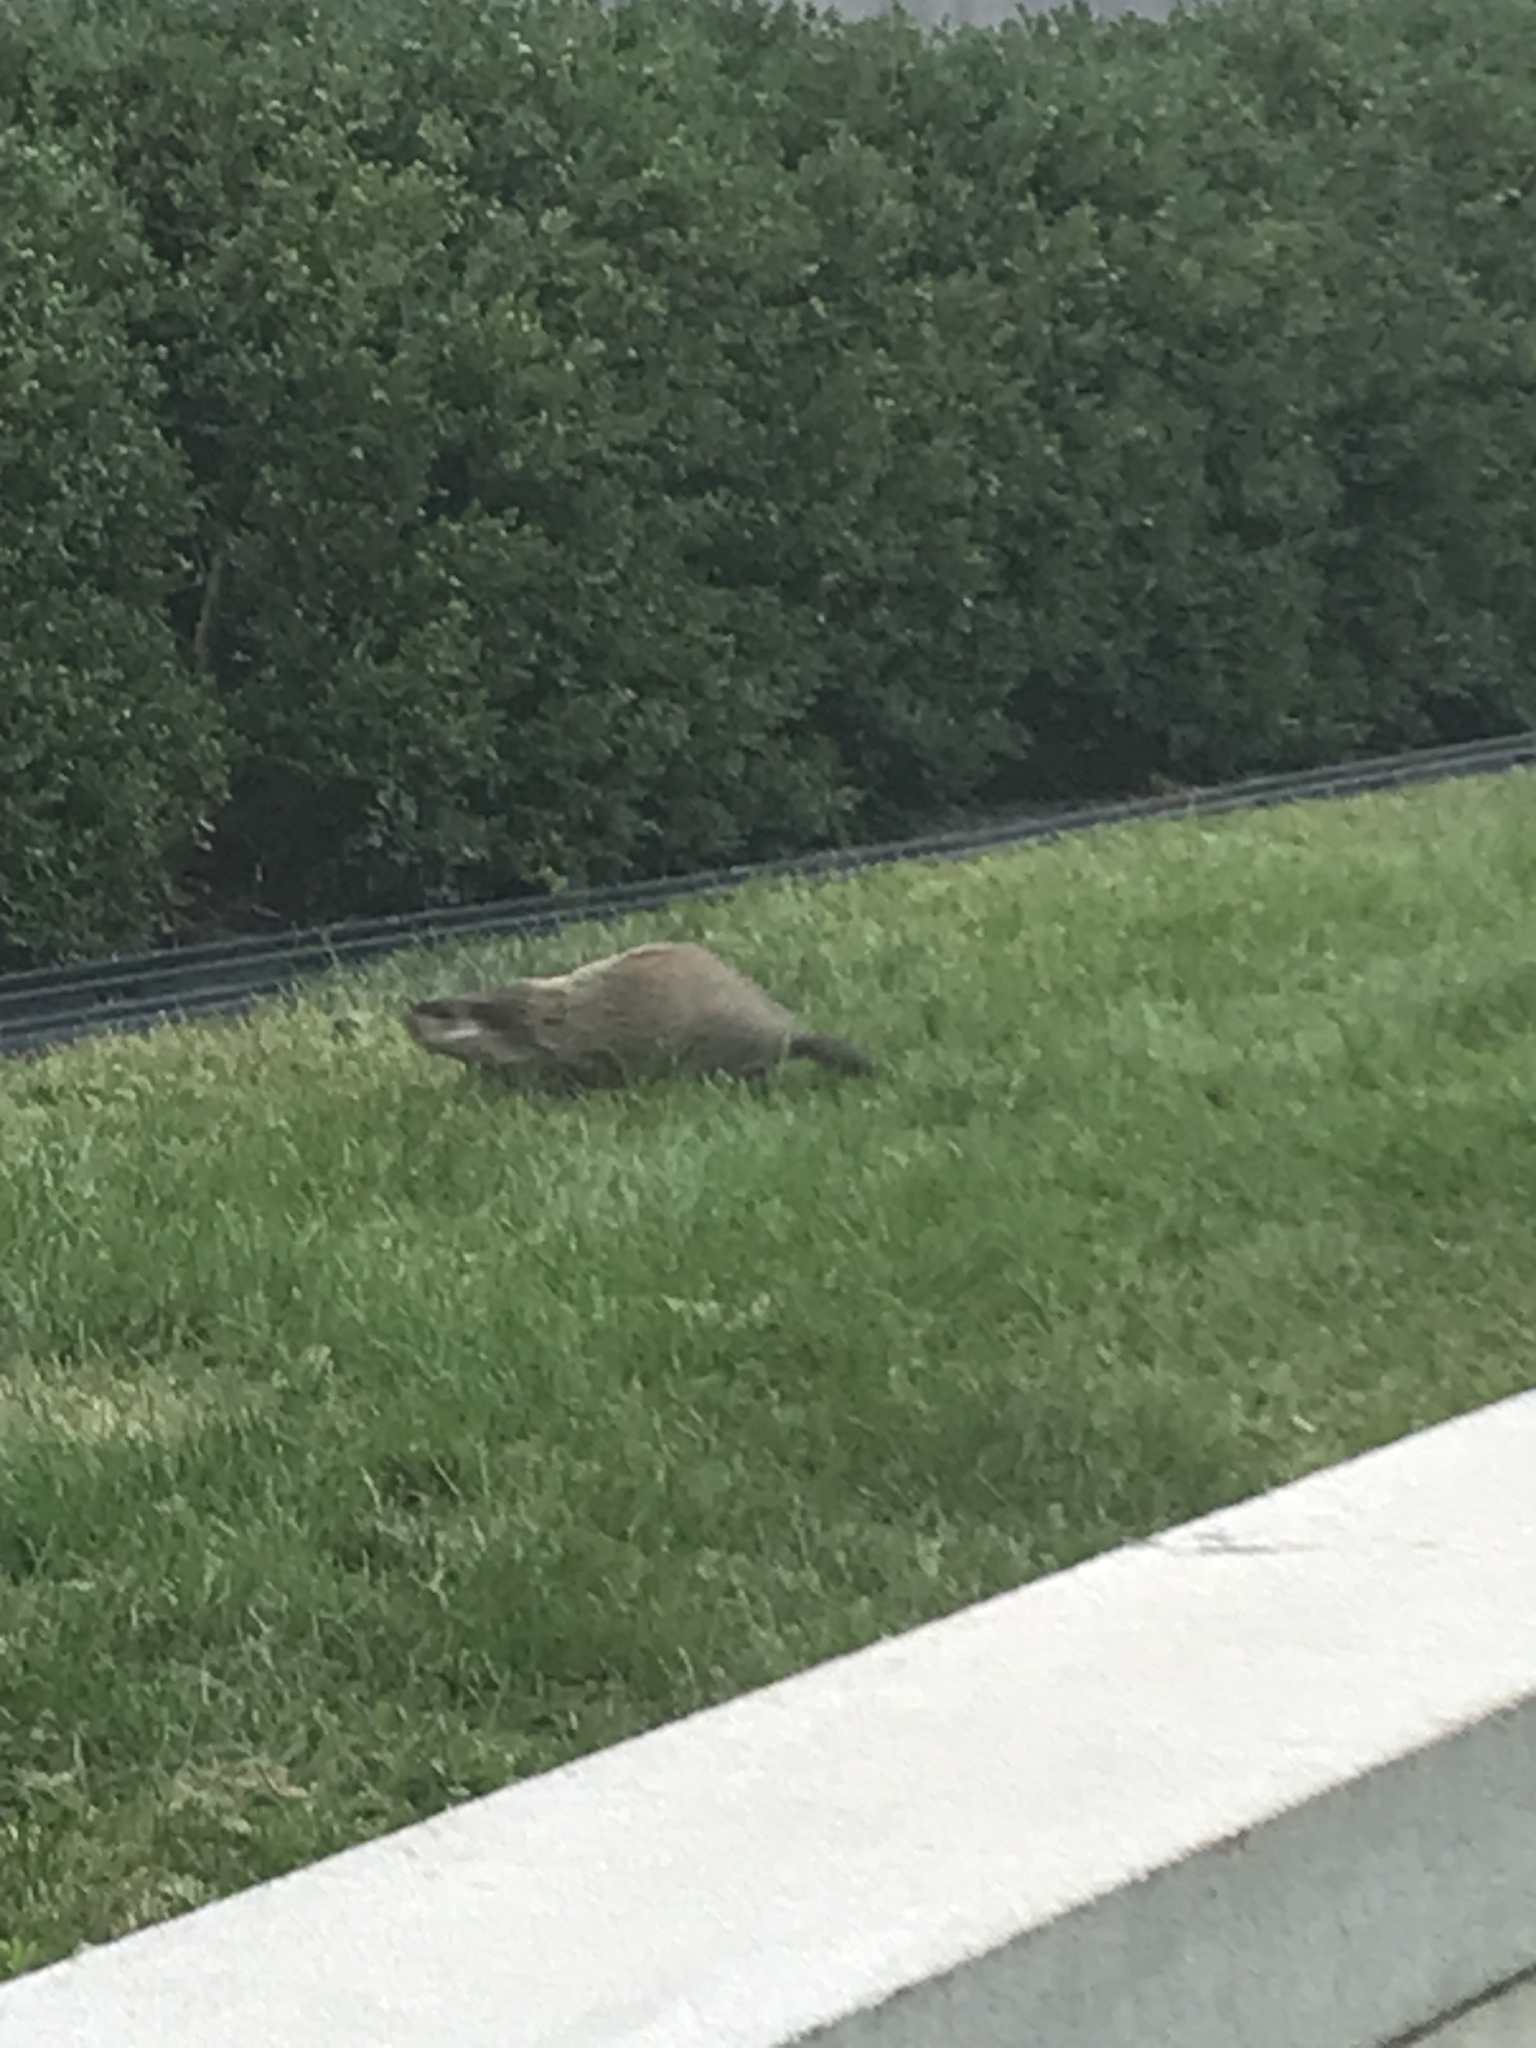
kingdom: Animalia
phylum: Chordata
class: Mammalia
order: Rodentia
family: Sciuridae
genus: Marmota
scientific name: Marmota monax
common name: Groundhog
